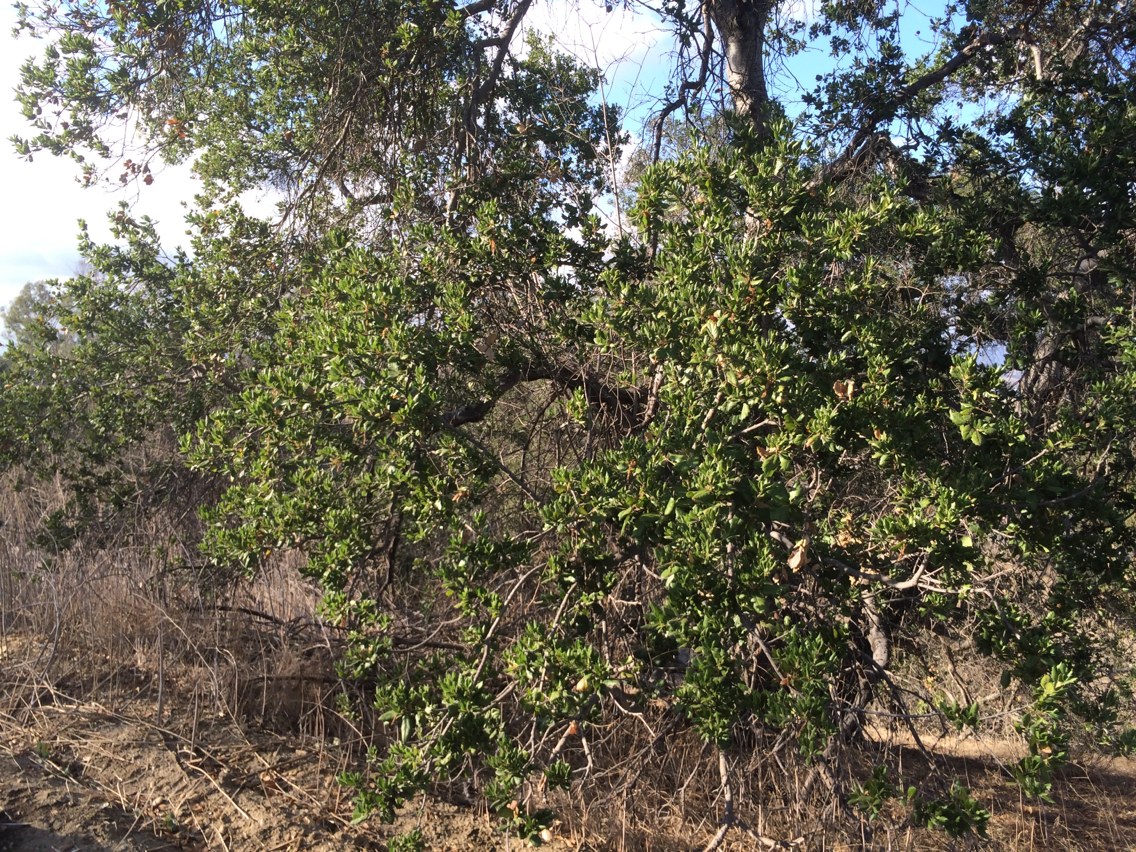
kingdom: Plantae
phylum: Tracheophyta
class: Magnoliopsida
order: Fagales
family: Fagaceae
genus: Quercus
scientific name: Quercus agrifolia
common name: California live oak
